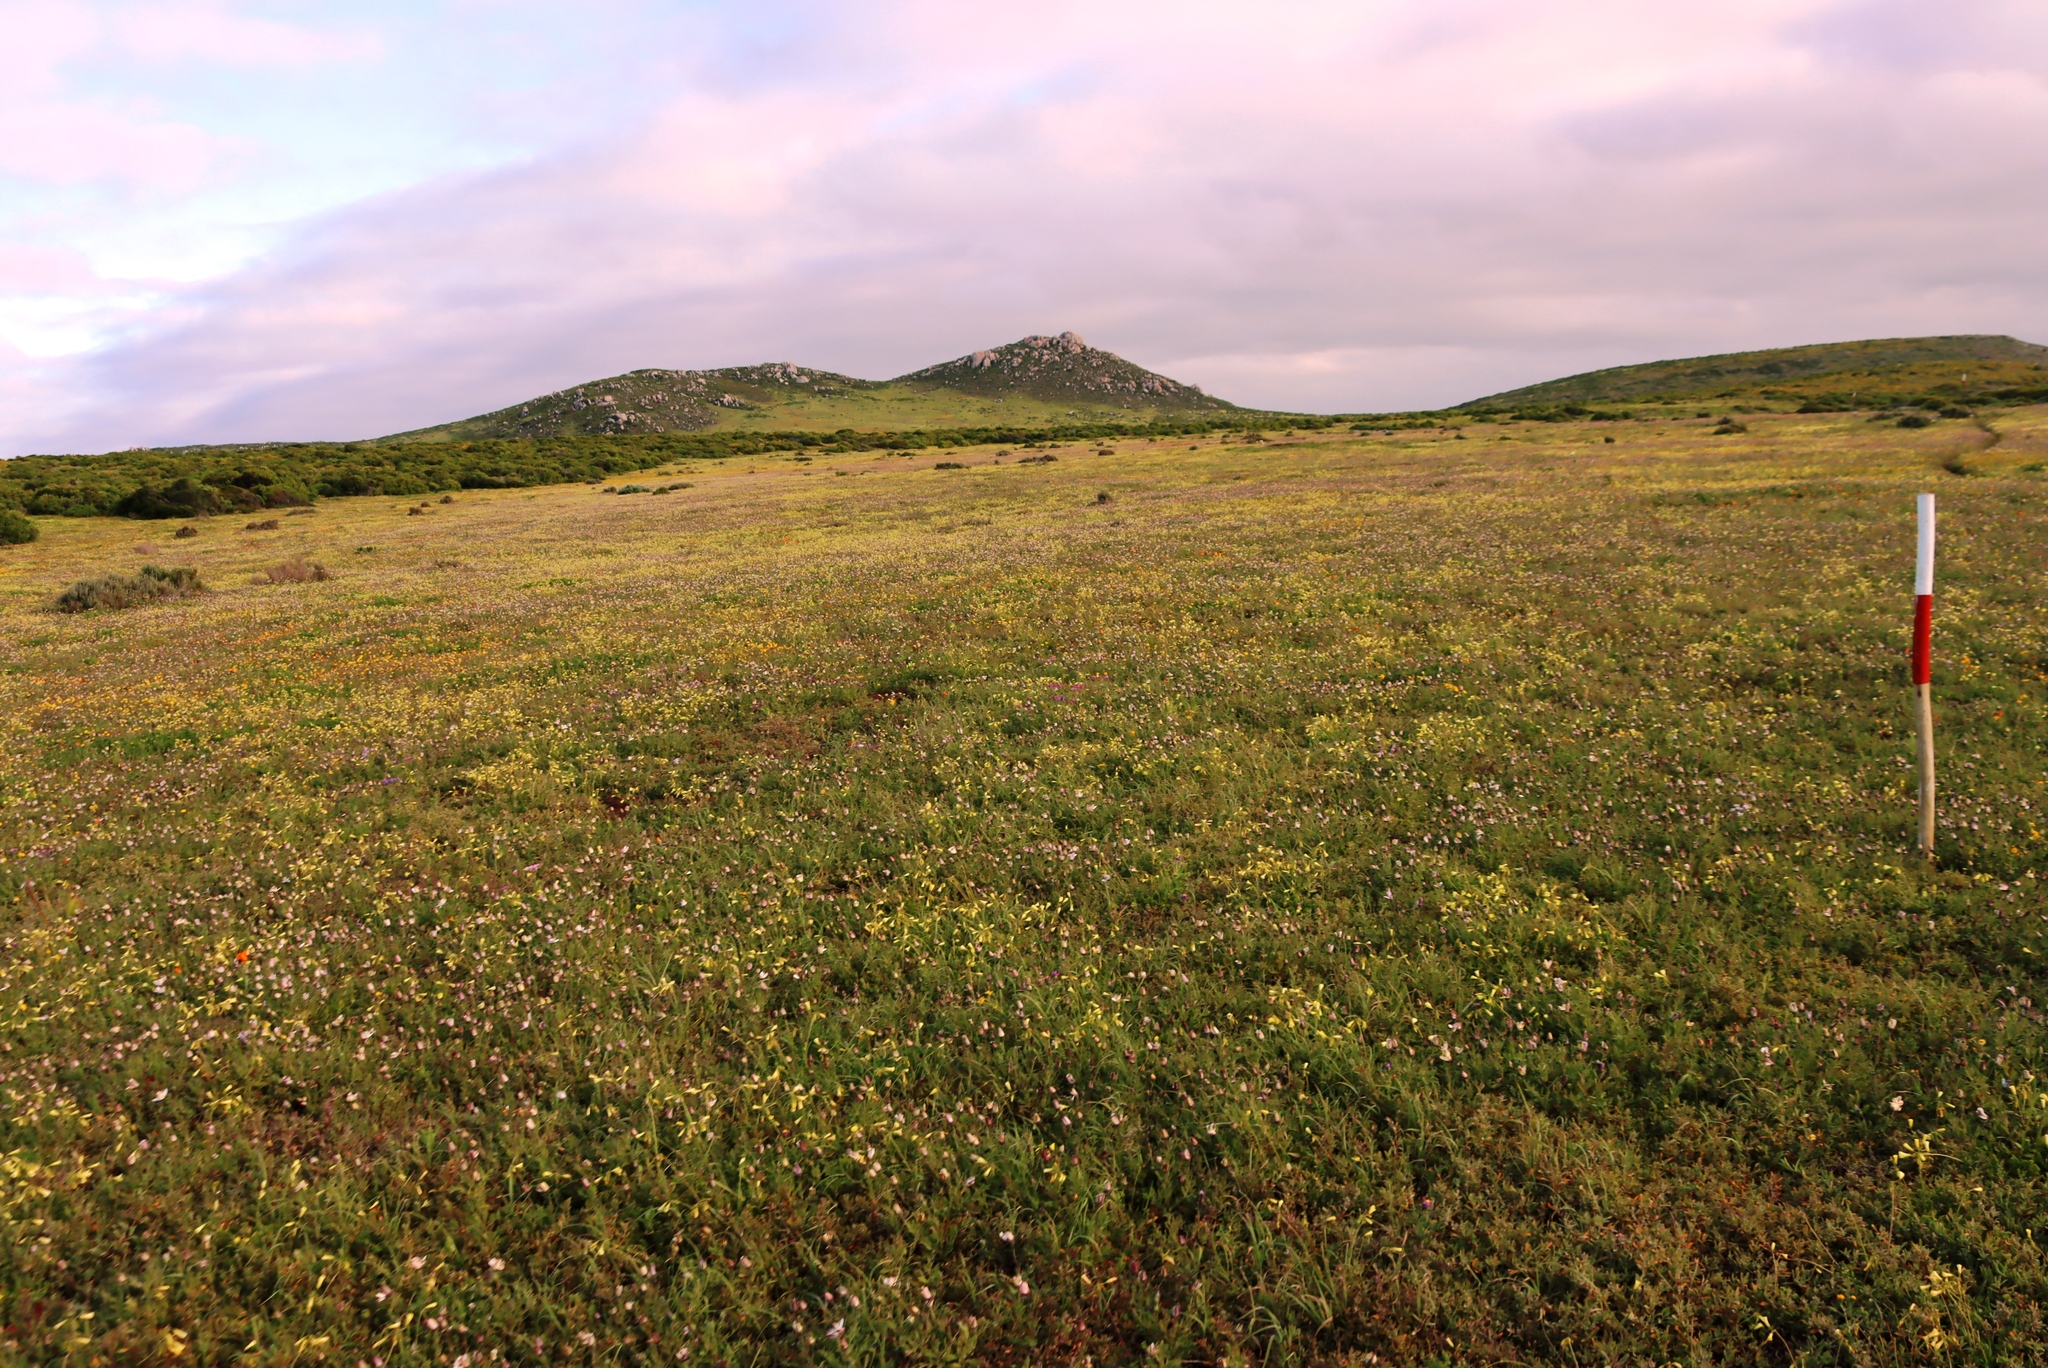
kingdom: Plantae
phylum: Tracheophyta
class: Magnoliopsida
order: Oxalidales
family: Oxalidaceae
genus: Oxalis
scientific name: Oxalis pes-caprae
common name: Bermuda-buttercup
